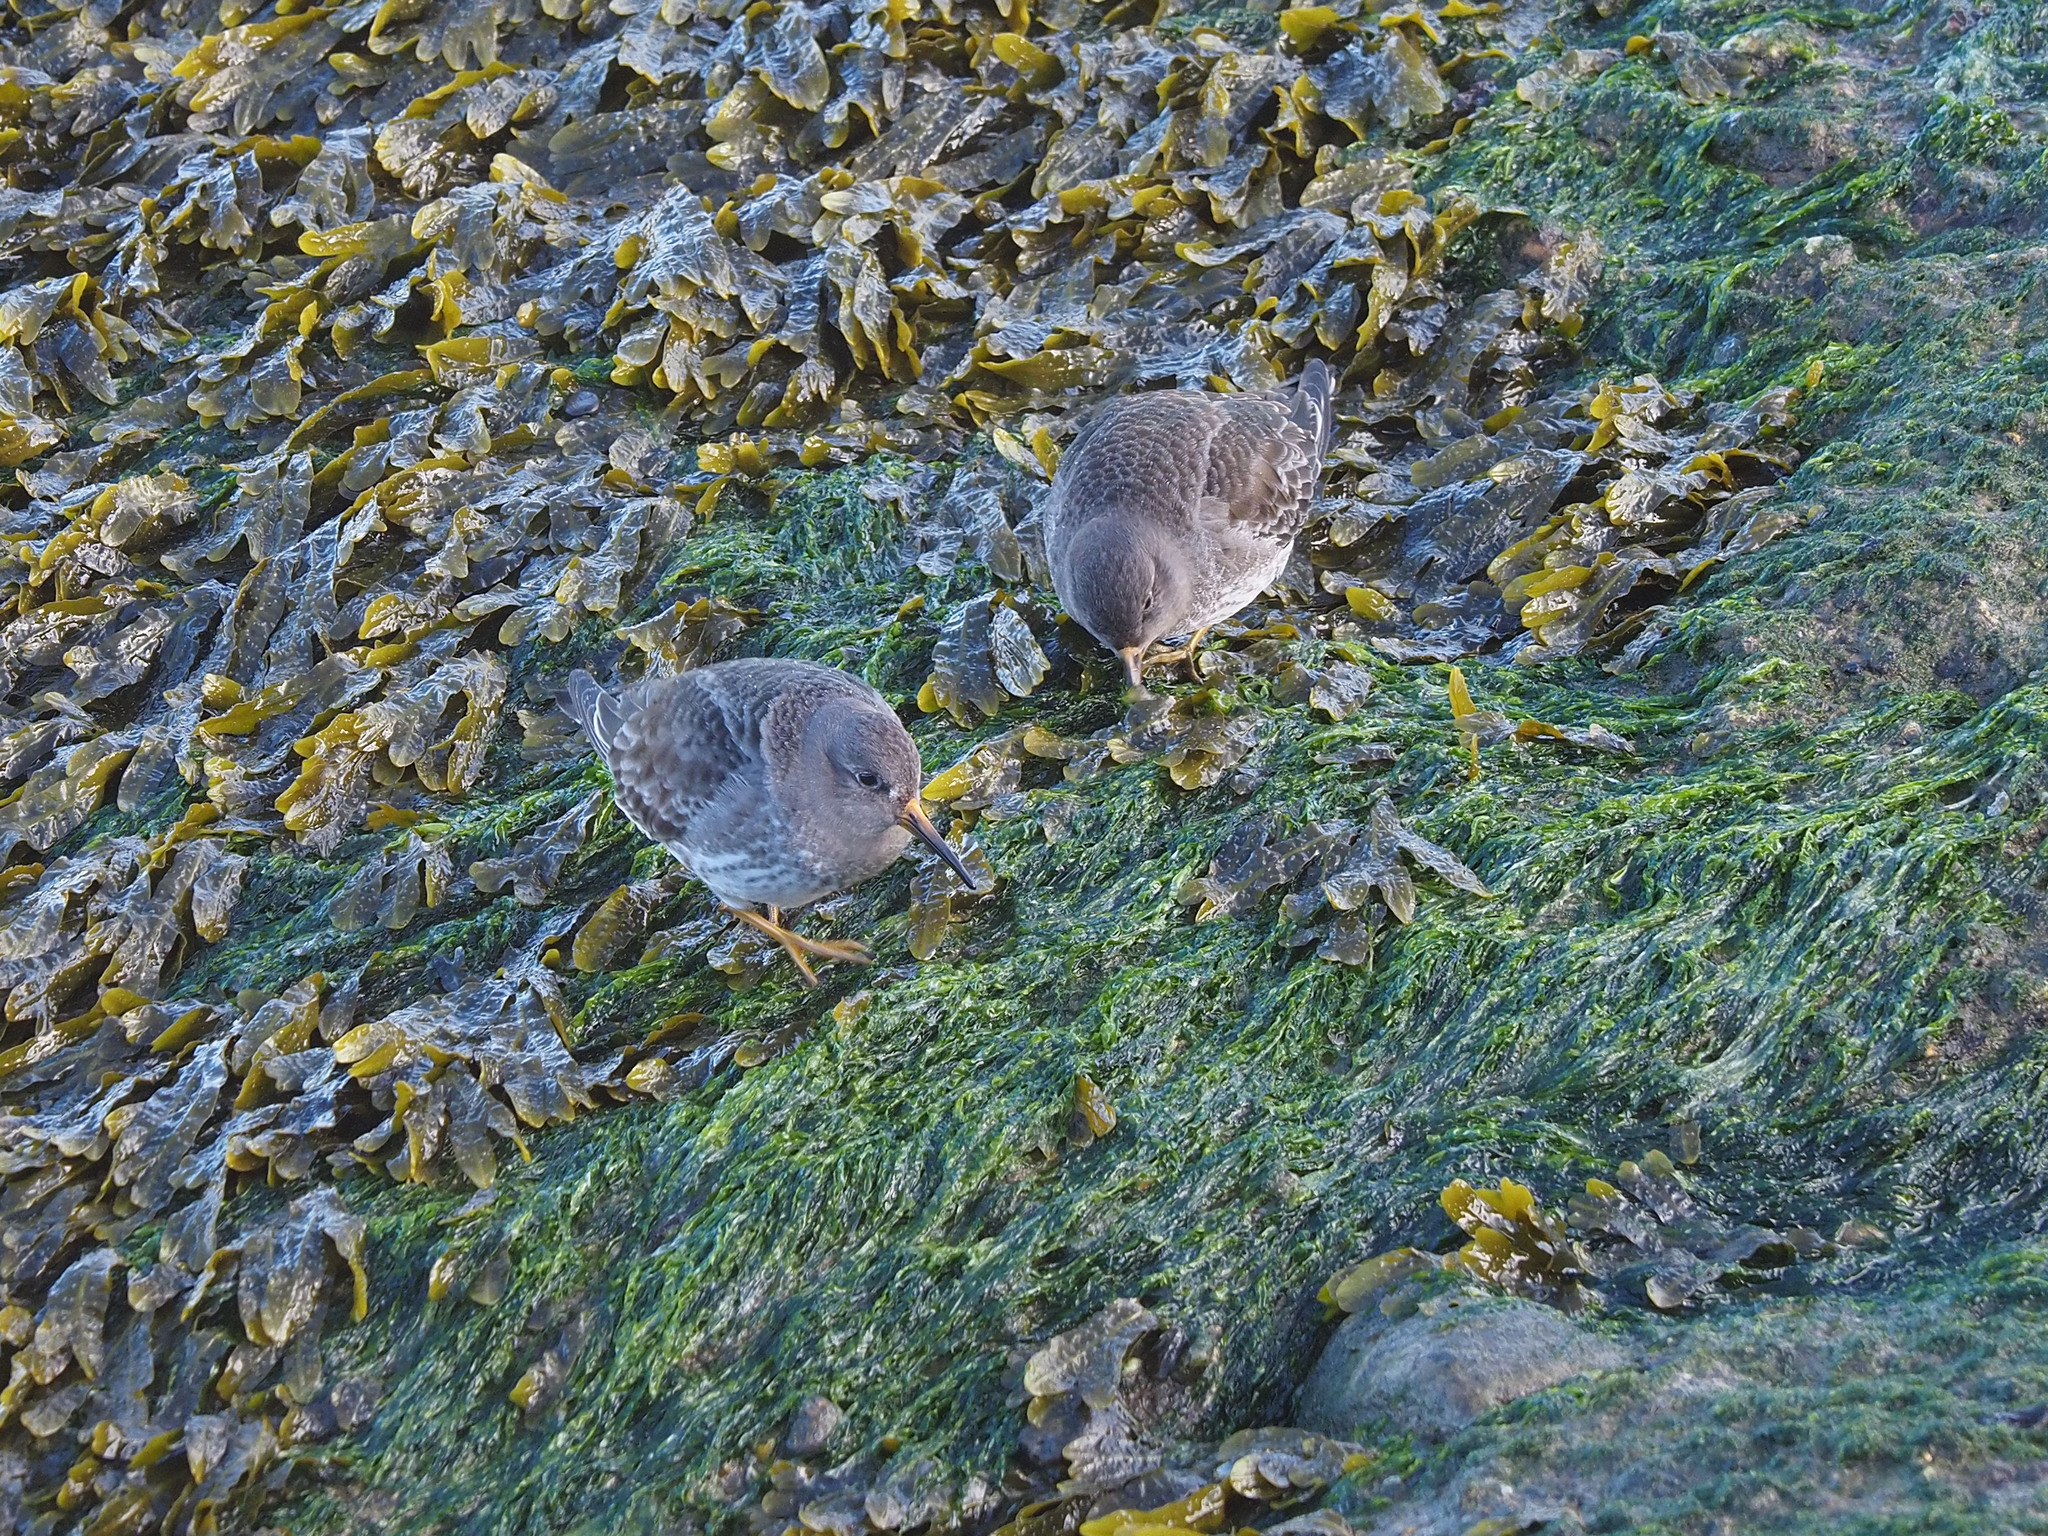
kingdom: Animalia
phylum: Chordata
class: Aves
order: Charadriiformes
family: Scolopacidae
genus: Calidris
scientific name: Calidris maritima
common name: Purple sandpiper
